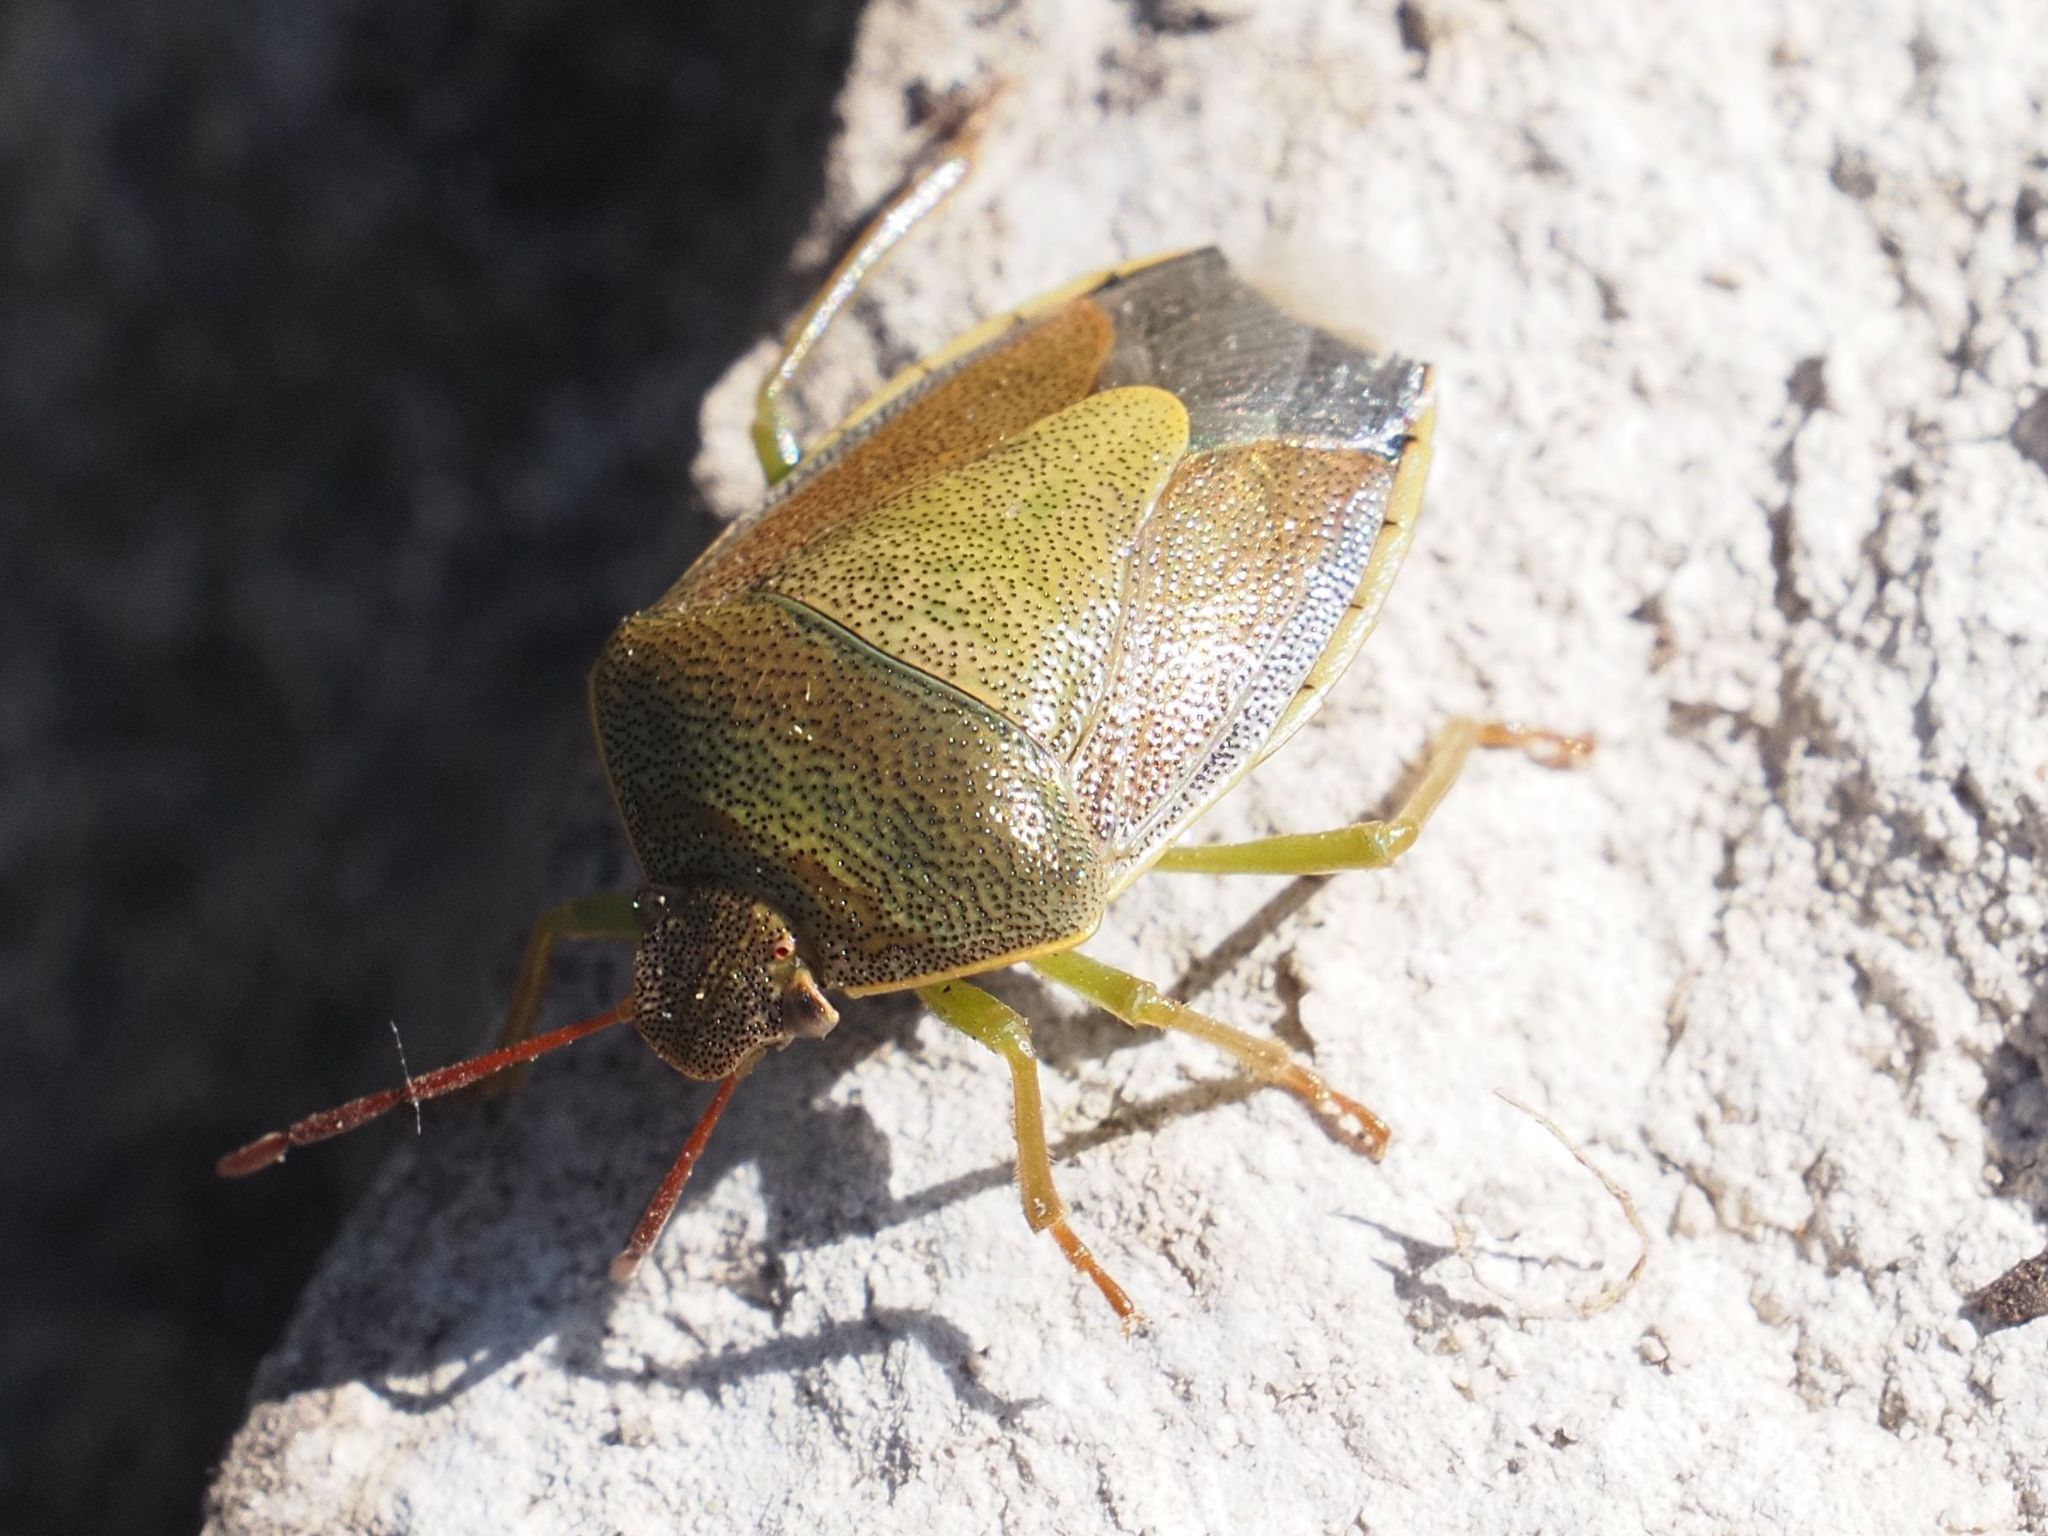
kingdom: Animalia
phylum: Arthropoda
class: Insecta
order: Hemiptera
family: Pentatomidae
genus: Piezodorus
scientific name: Piezodorus lituratus
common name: Stink bug
